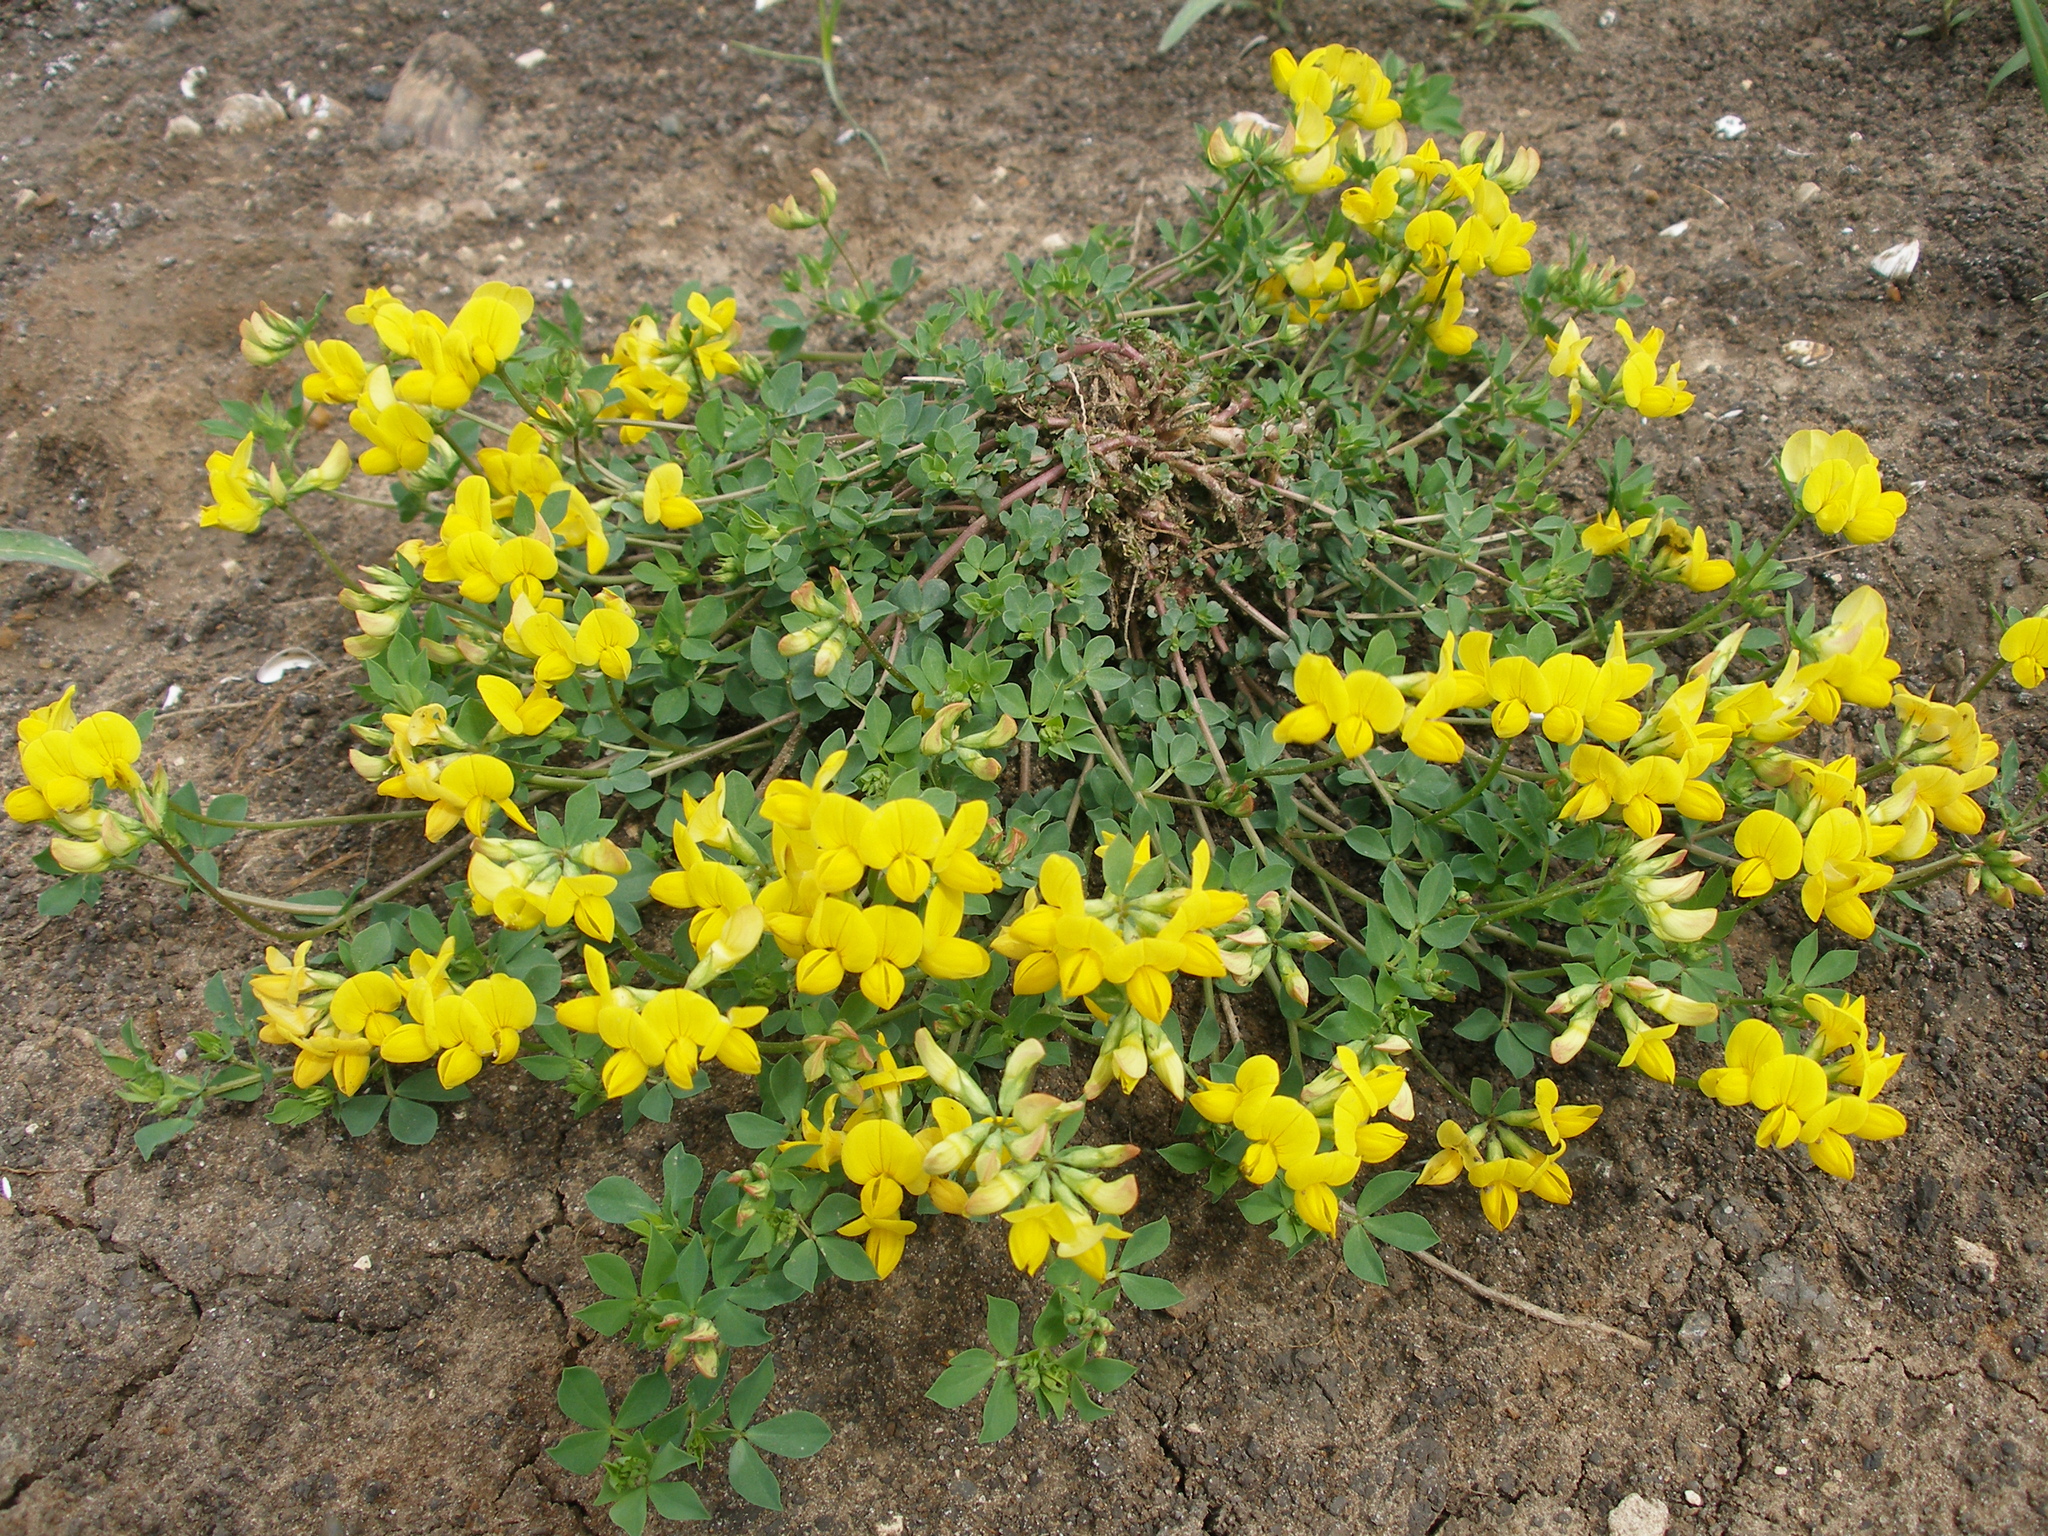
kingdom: Plantae
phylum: Tracheophyta
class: Magnoliopsida
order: Fabales
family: Fabaceae
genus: Lotus
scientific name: Lotus corniculatus
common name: Common bird's-foot-trefoil
